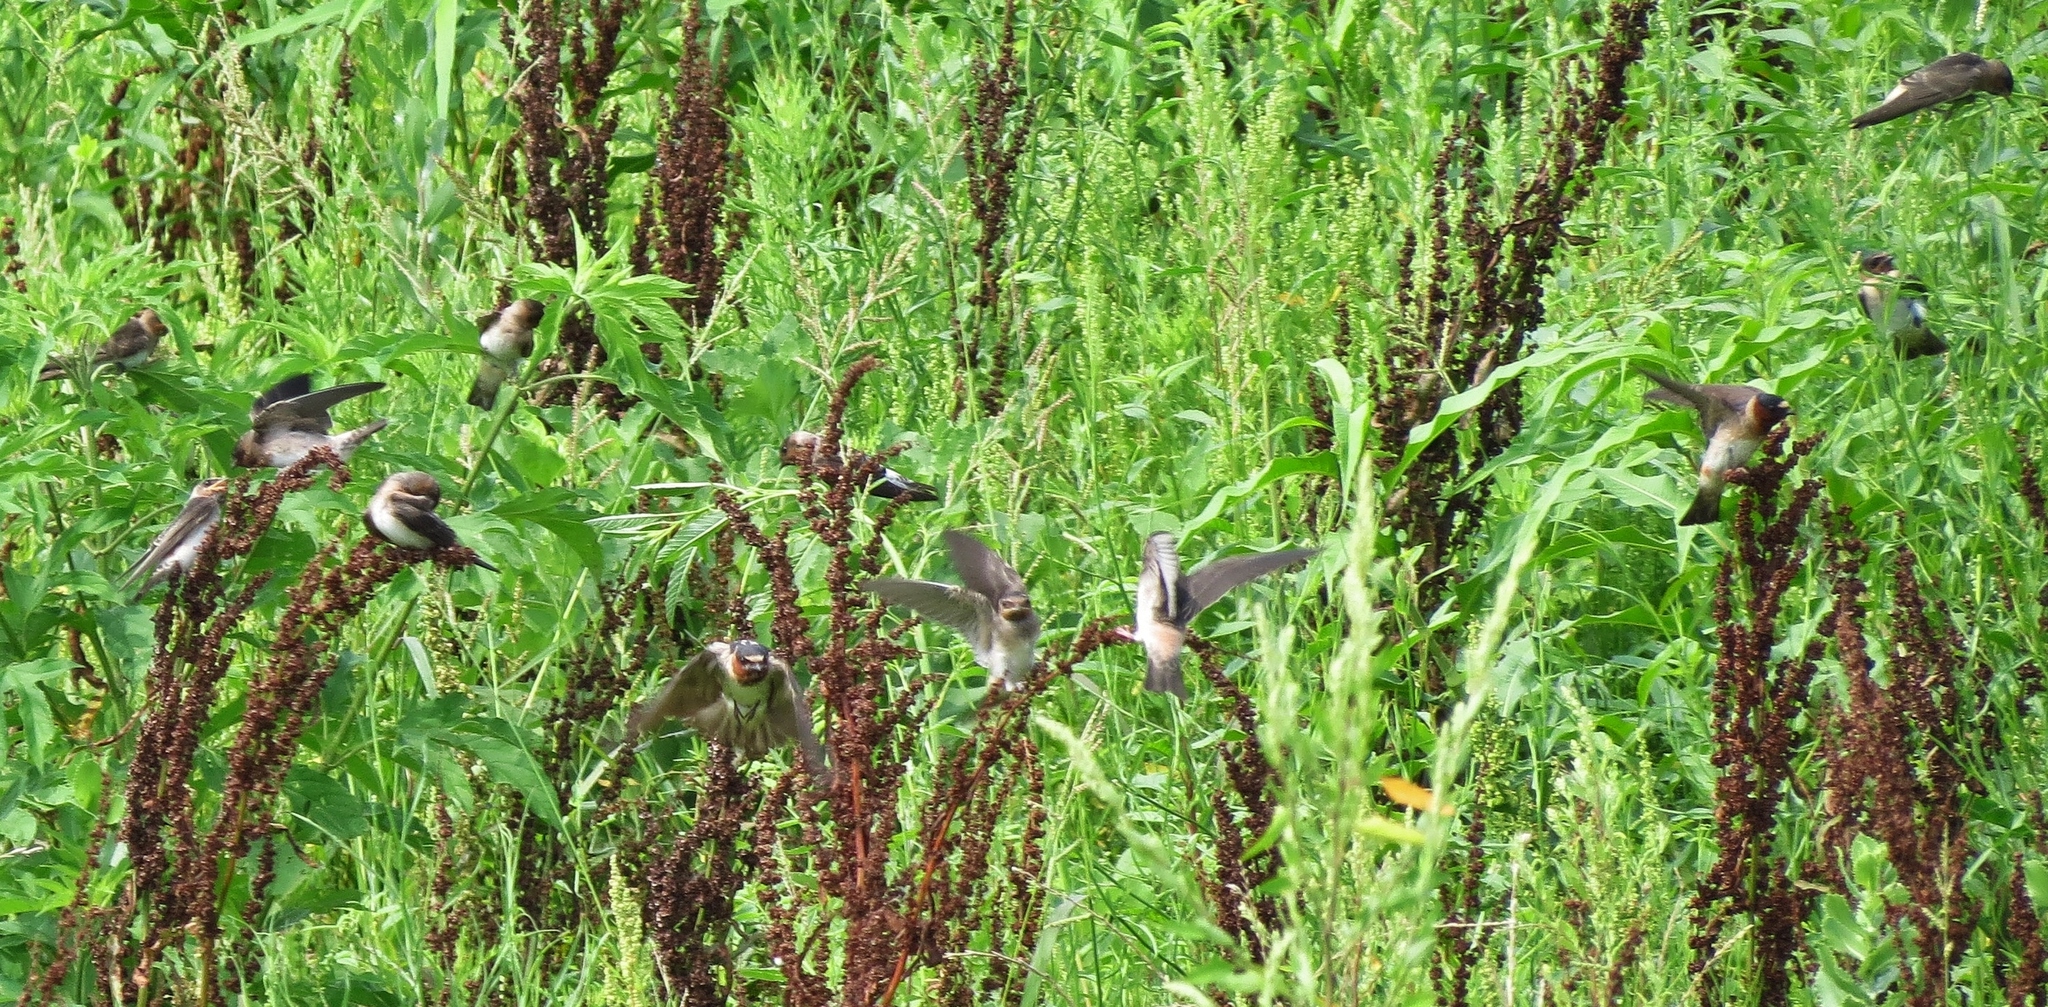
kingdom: Animalia
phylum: Chordata
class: Aves
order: Passeriformes
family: Hirundinidae
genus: Petrochelidon
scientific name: Petrochelidon pyrrhonota
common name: American cliff swallow
